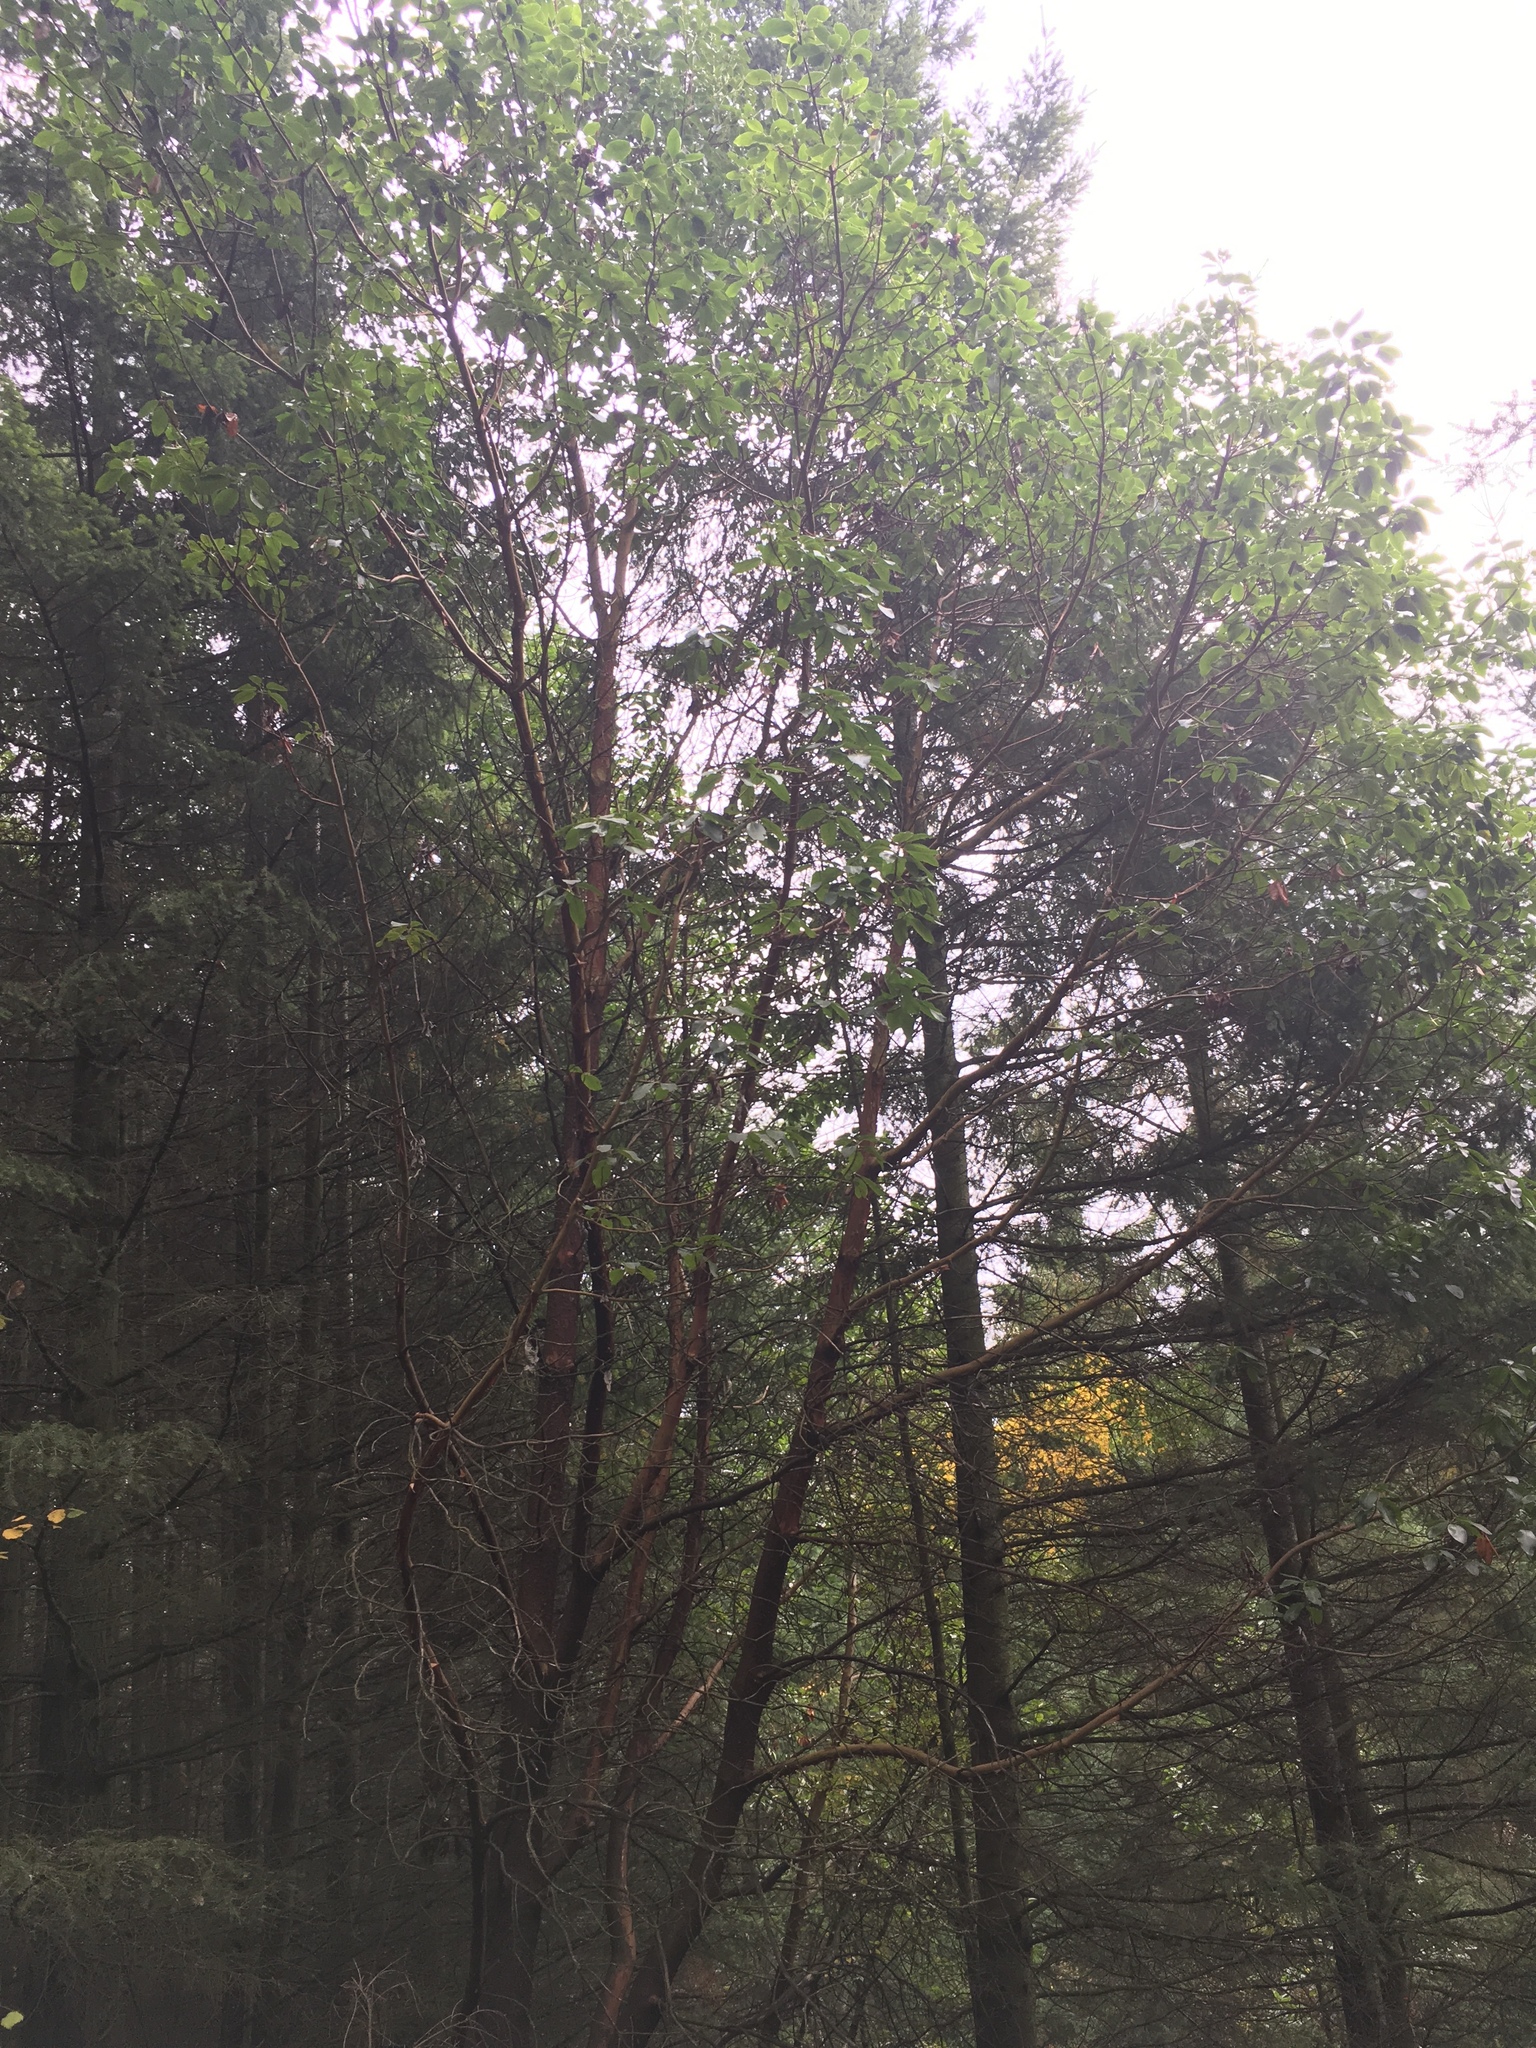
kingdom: Plantae
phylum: Tracheophyta
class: Magnoliopsida
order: Ericales
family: Ericaceae
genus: Arbutus
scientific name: Arbutus menziesii
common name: Pacific madrone
